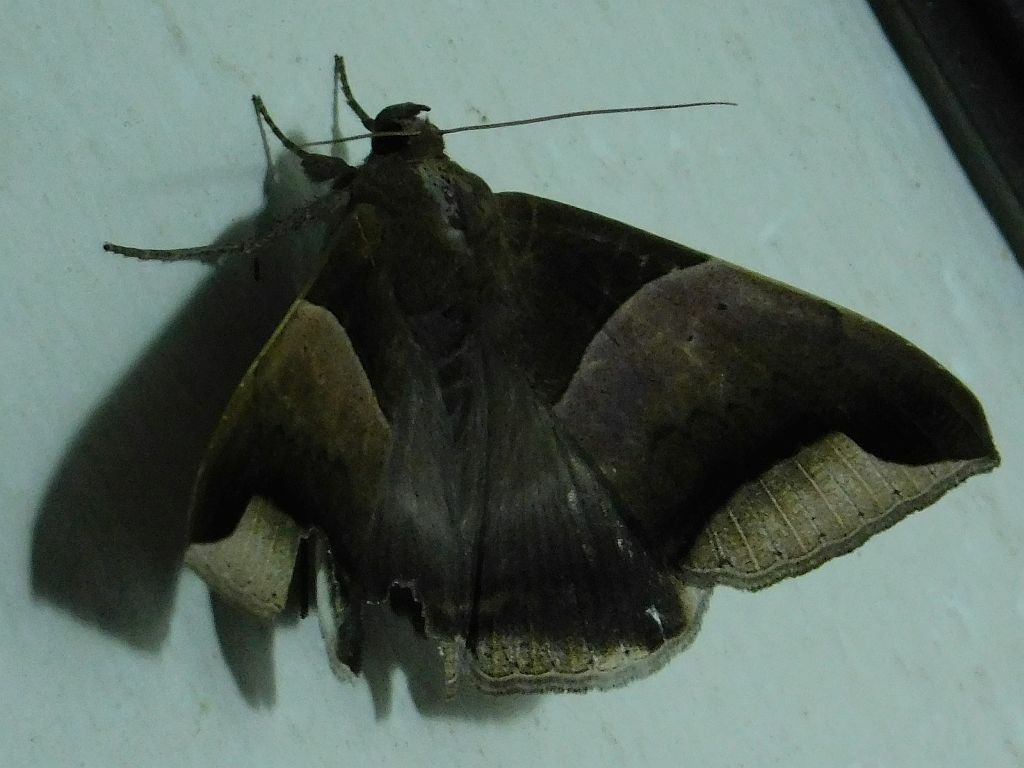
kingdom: Animalia
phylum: Arthropoda
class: Insecta
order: Lepidoptera
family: Erebidae
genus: Achaea
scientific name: Achaea echo
